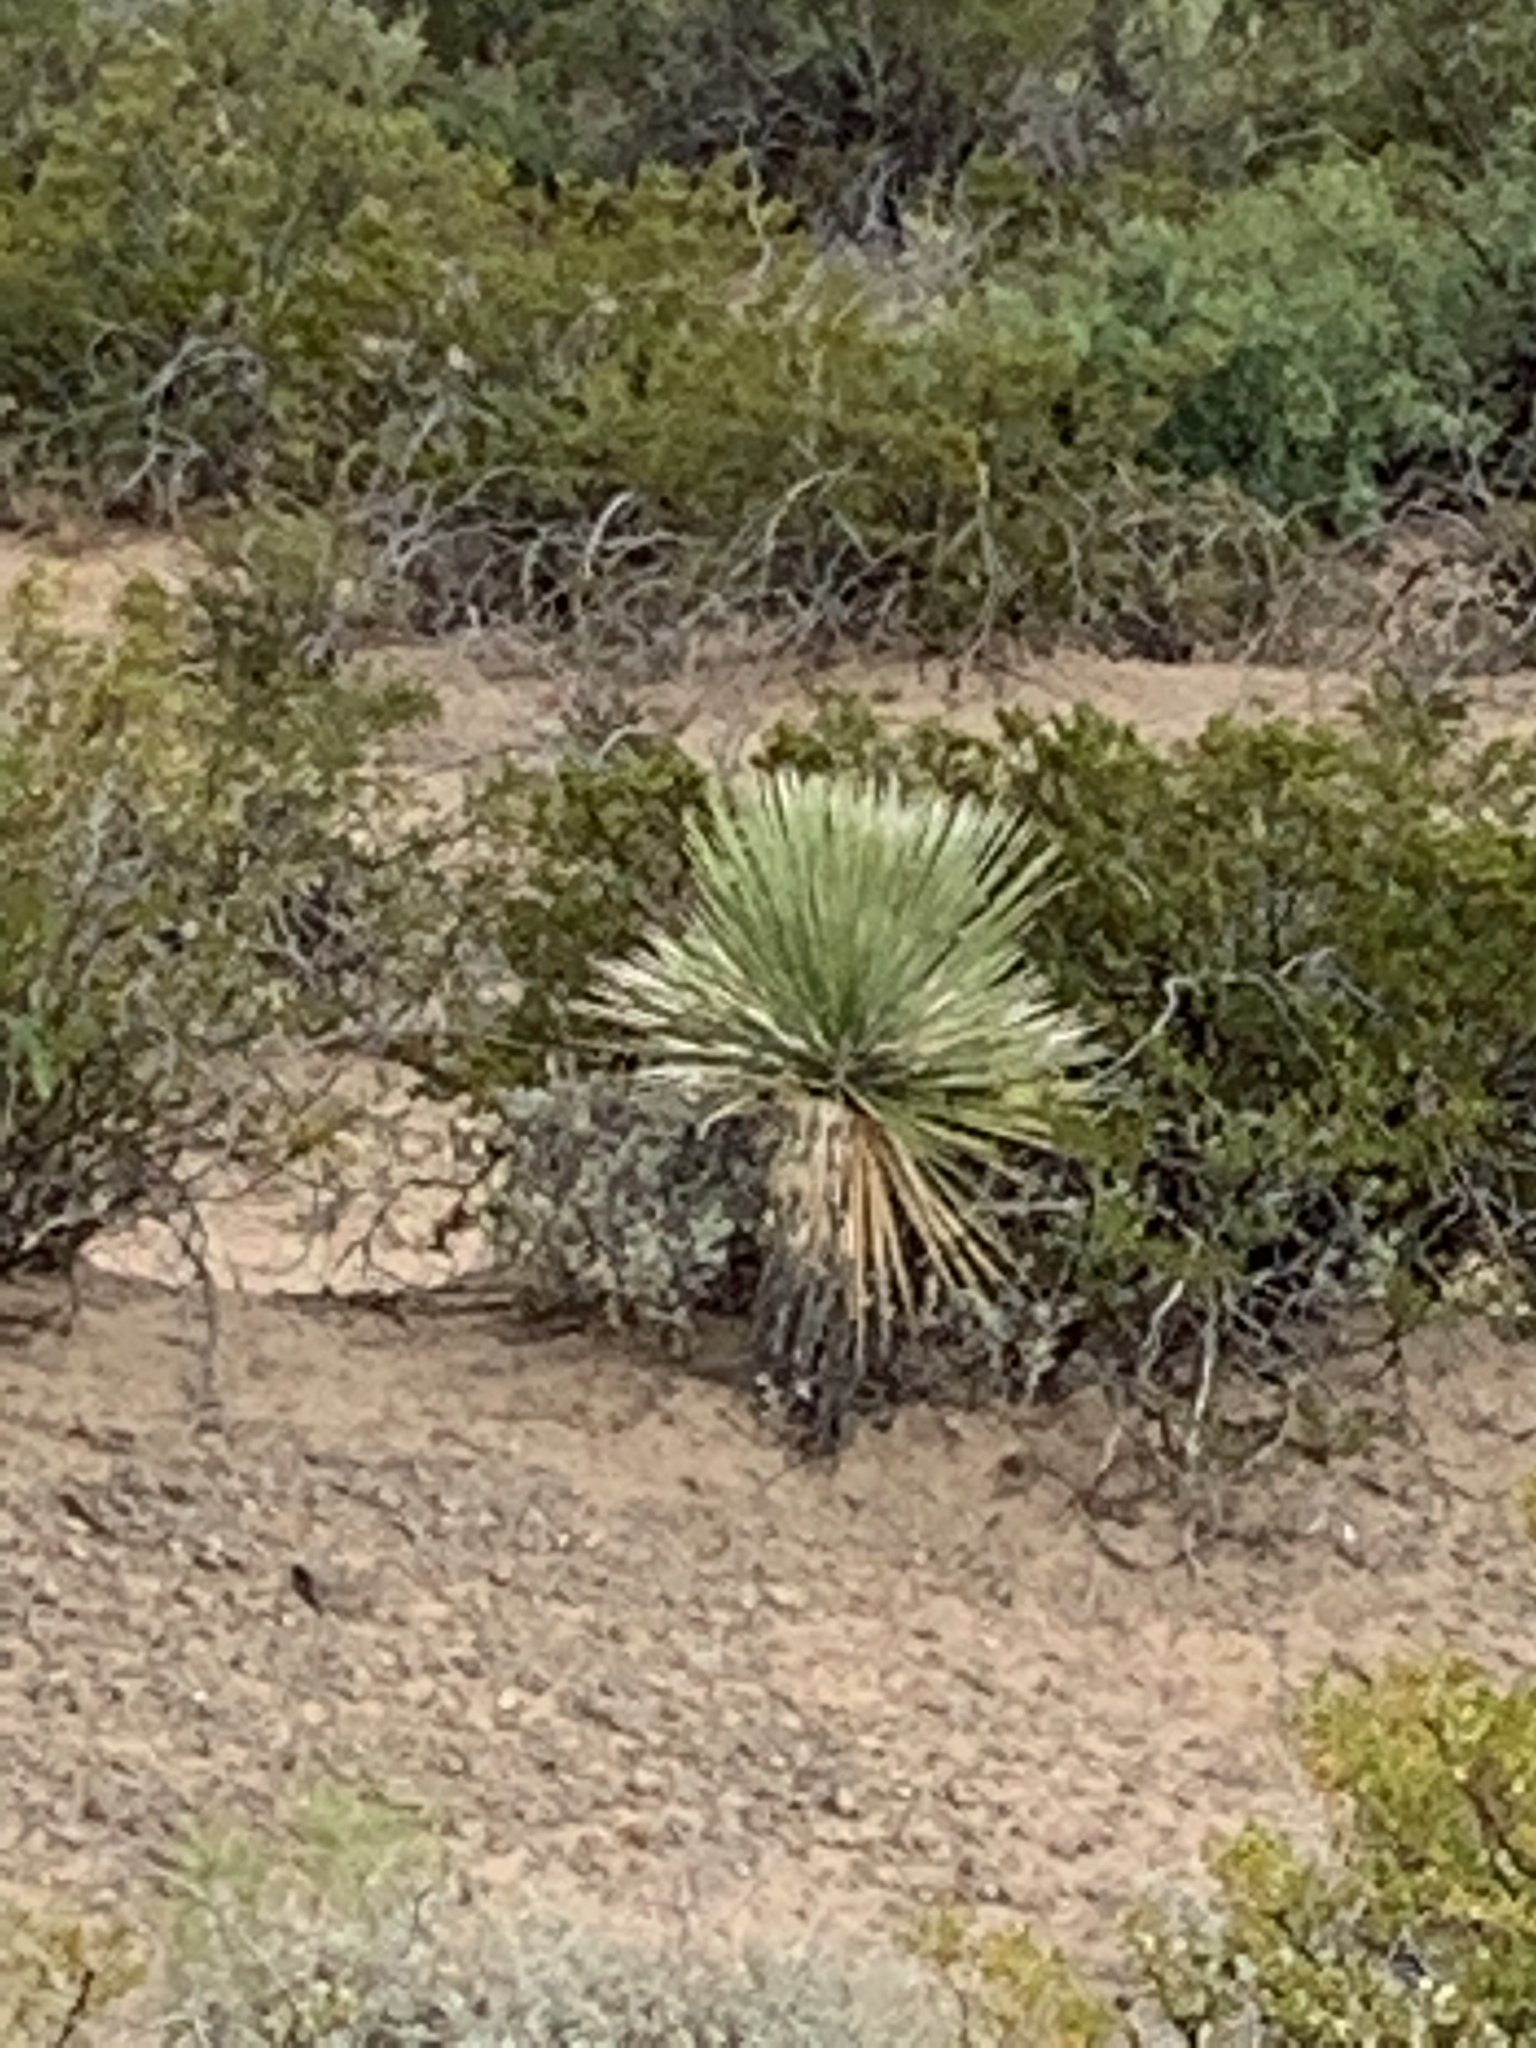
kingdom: Plantae
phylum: Tracheophyta
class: Liliopsida
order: Asparagales
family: Asparagaceae
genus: Yucca
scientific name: Yucca elata
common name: Palmella
